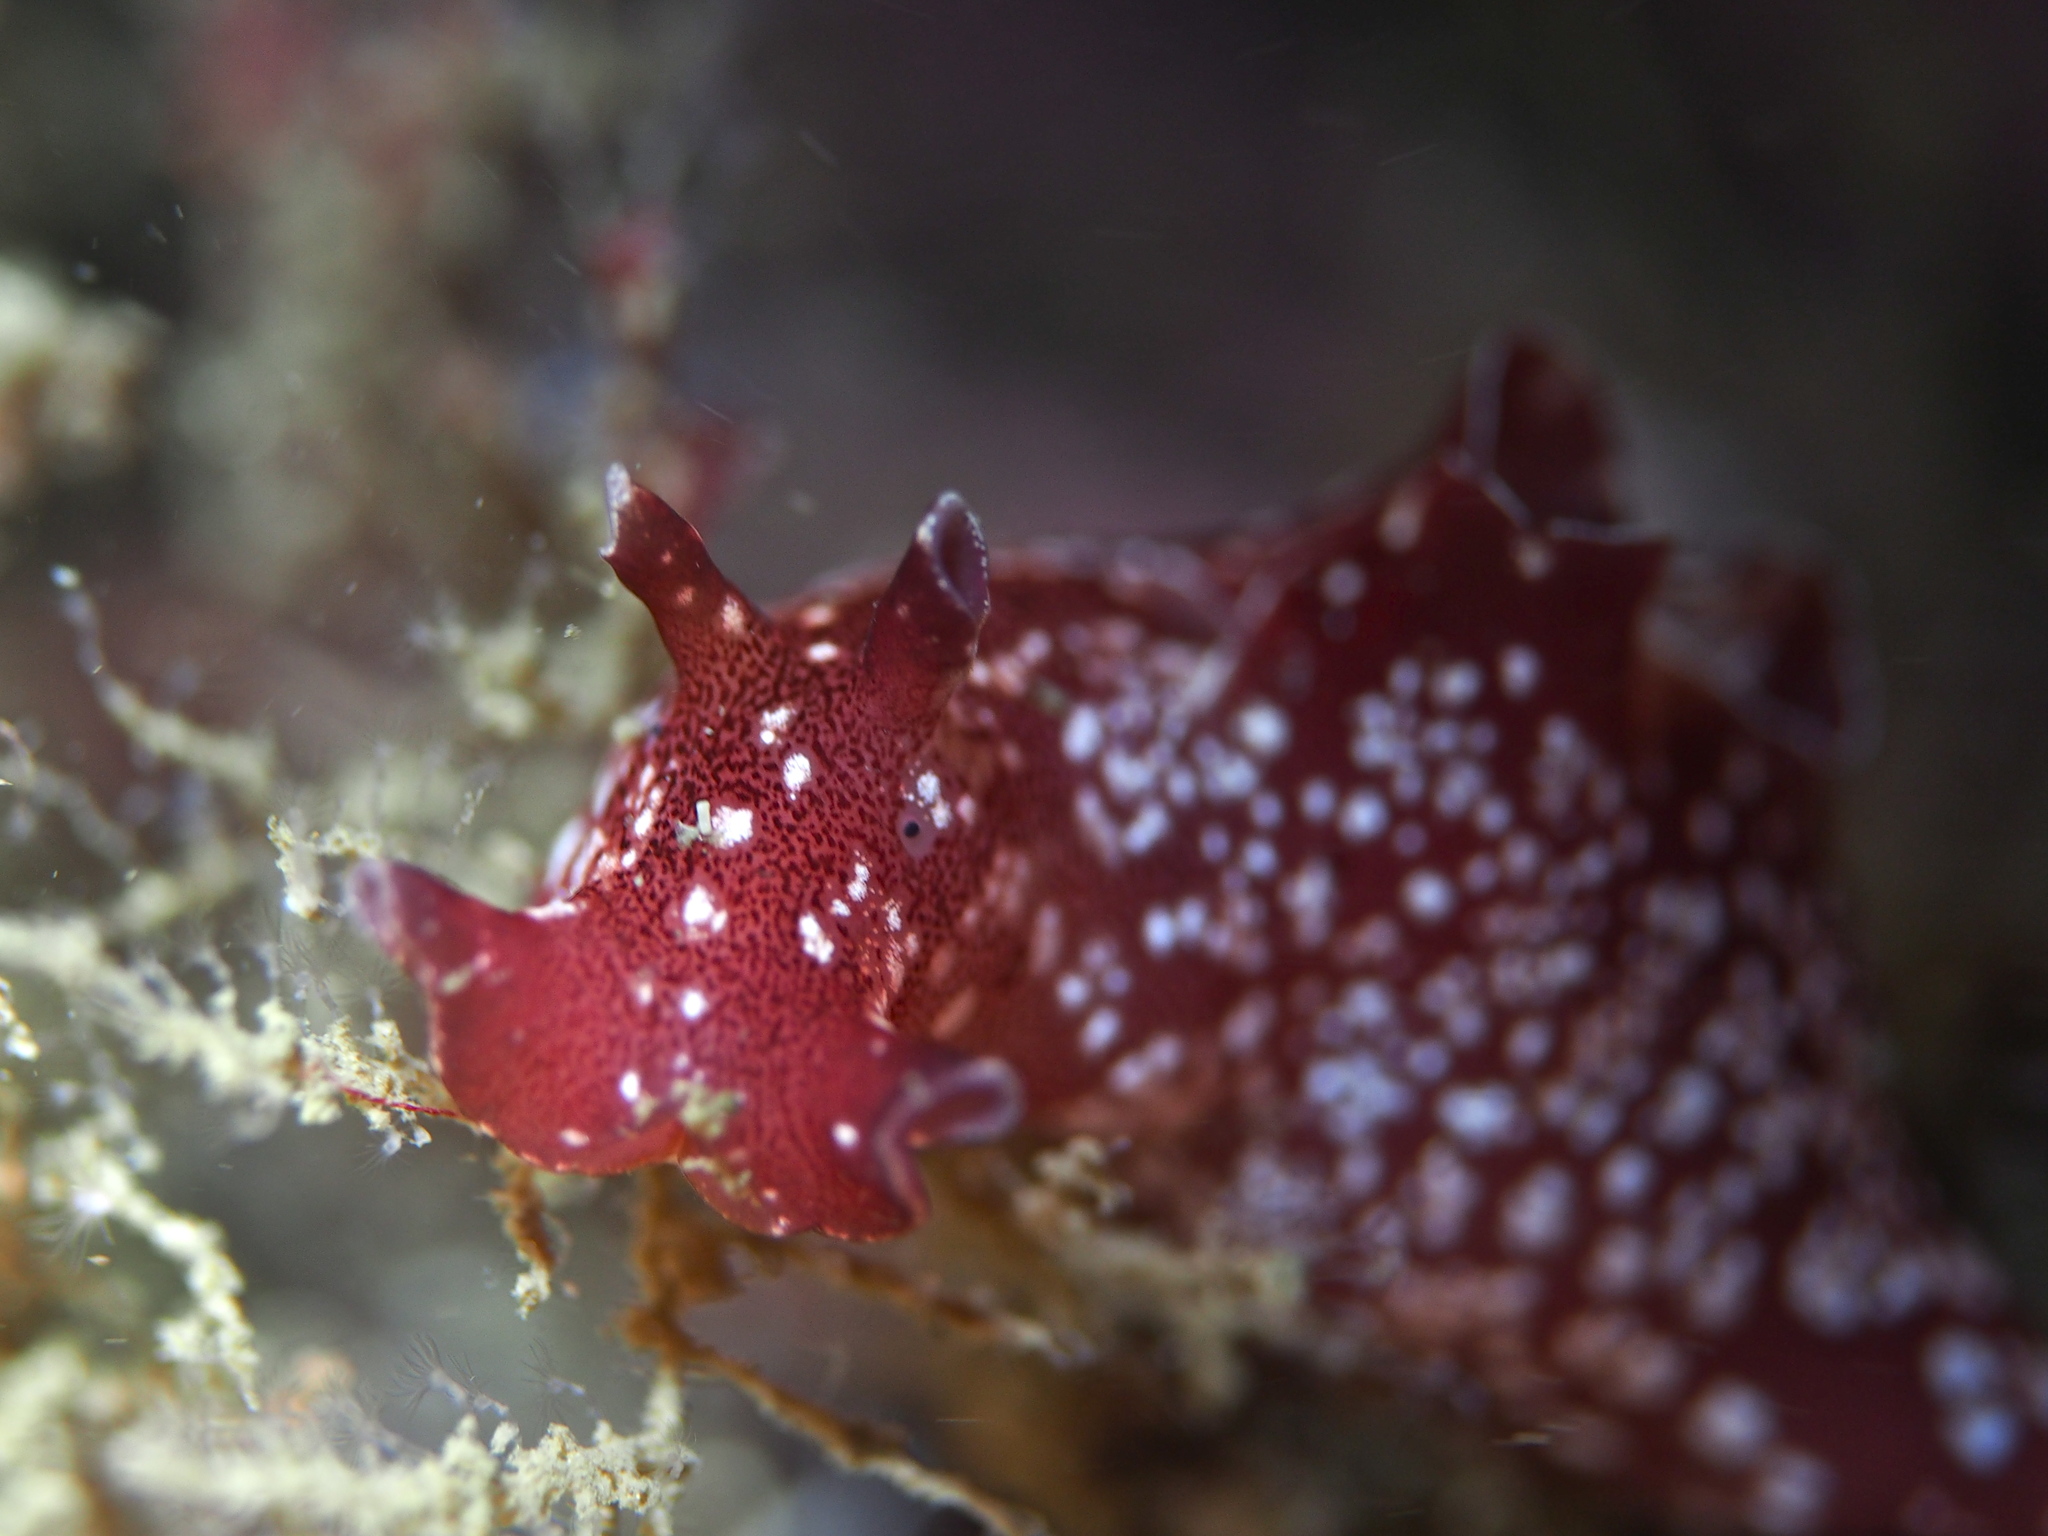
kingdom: Animalia
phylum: Mollusca
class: Gastropoda
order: Aplysiida
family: Aplysiidae
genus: Aplysia
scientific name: Aplysia punctata
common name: Common sea hare
